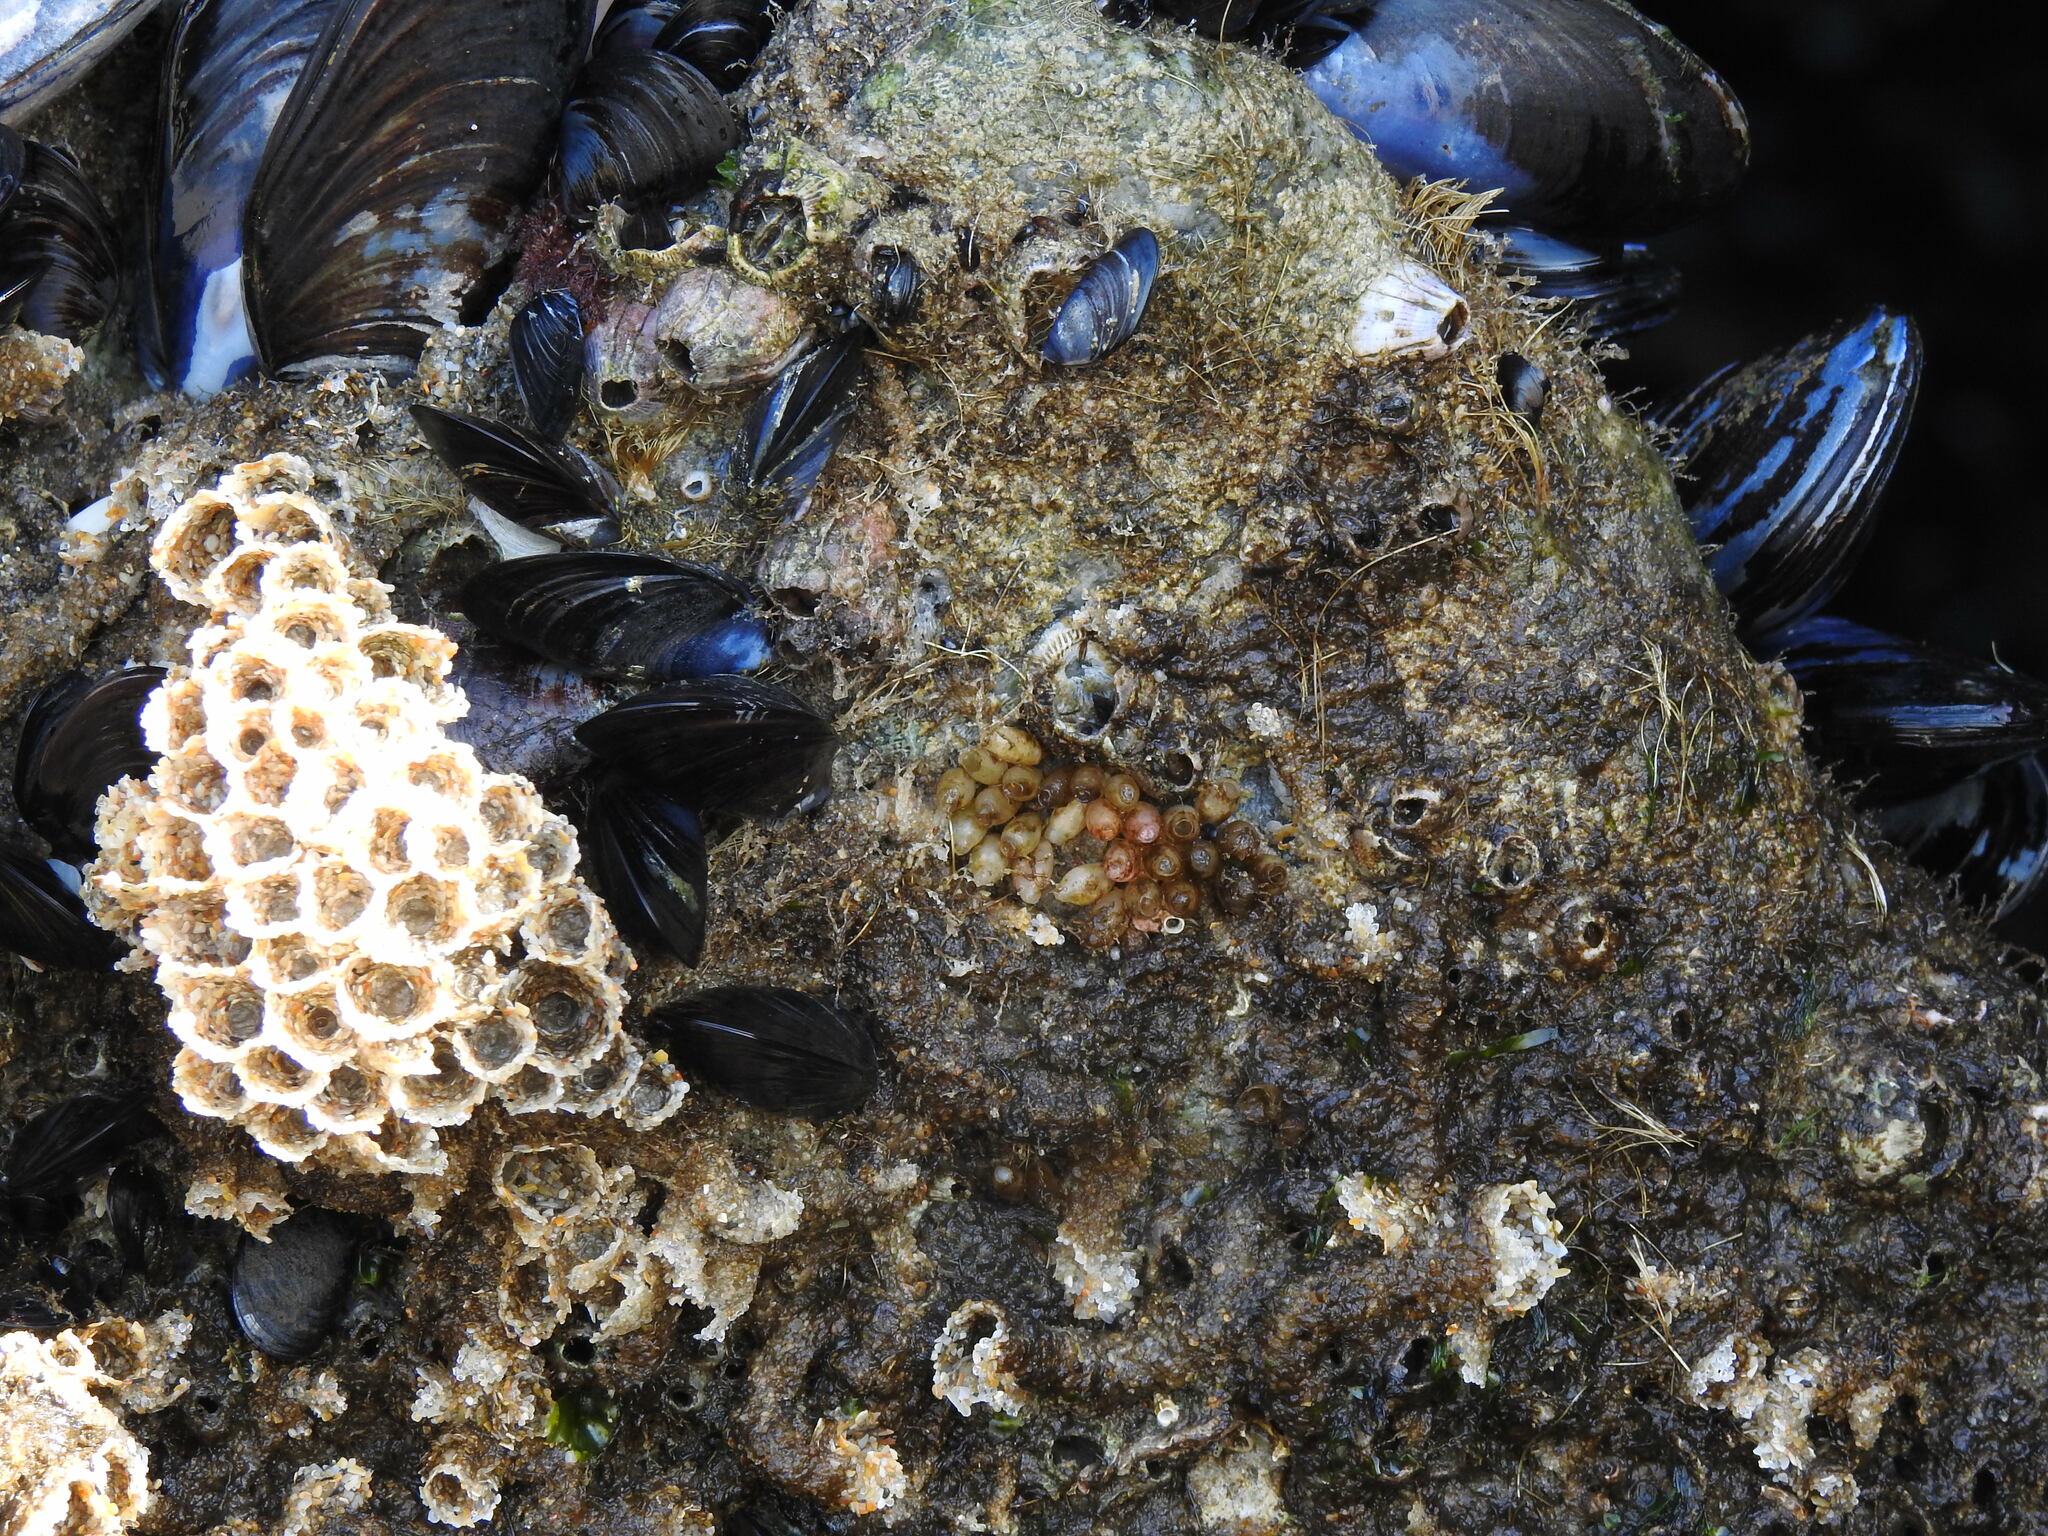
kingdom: Animalia
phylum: Mollusca
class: Gastropoda
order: Neogastropoda
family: Muricidae
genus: Nucella
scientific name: Nucella lapillus
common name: Dog whelk
